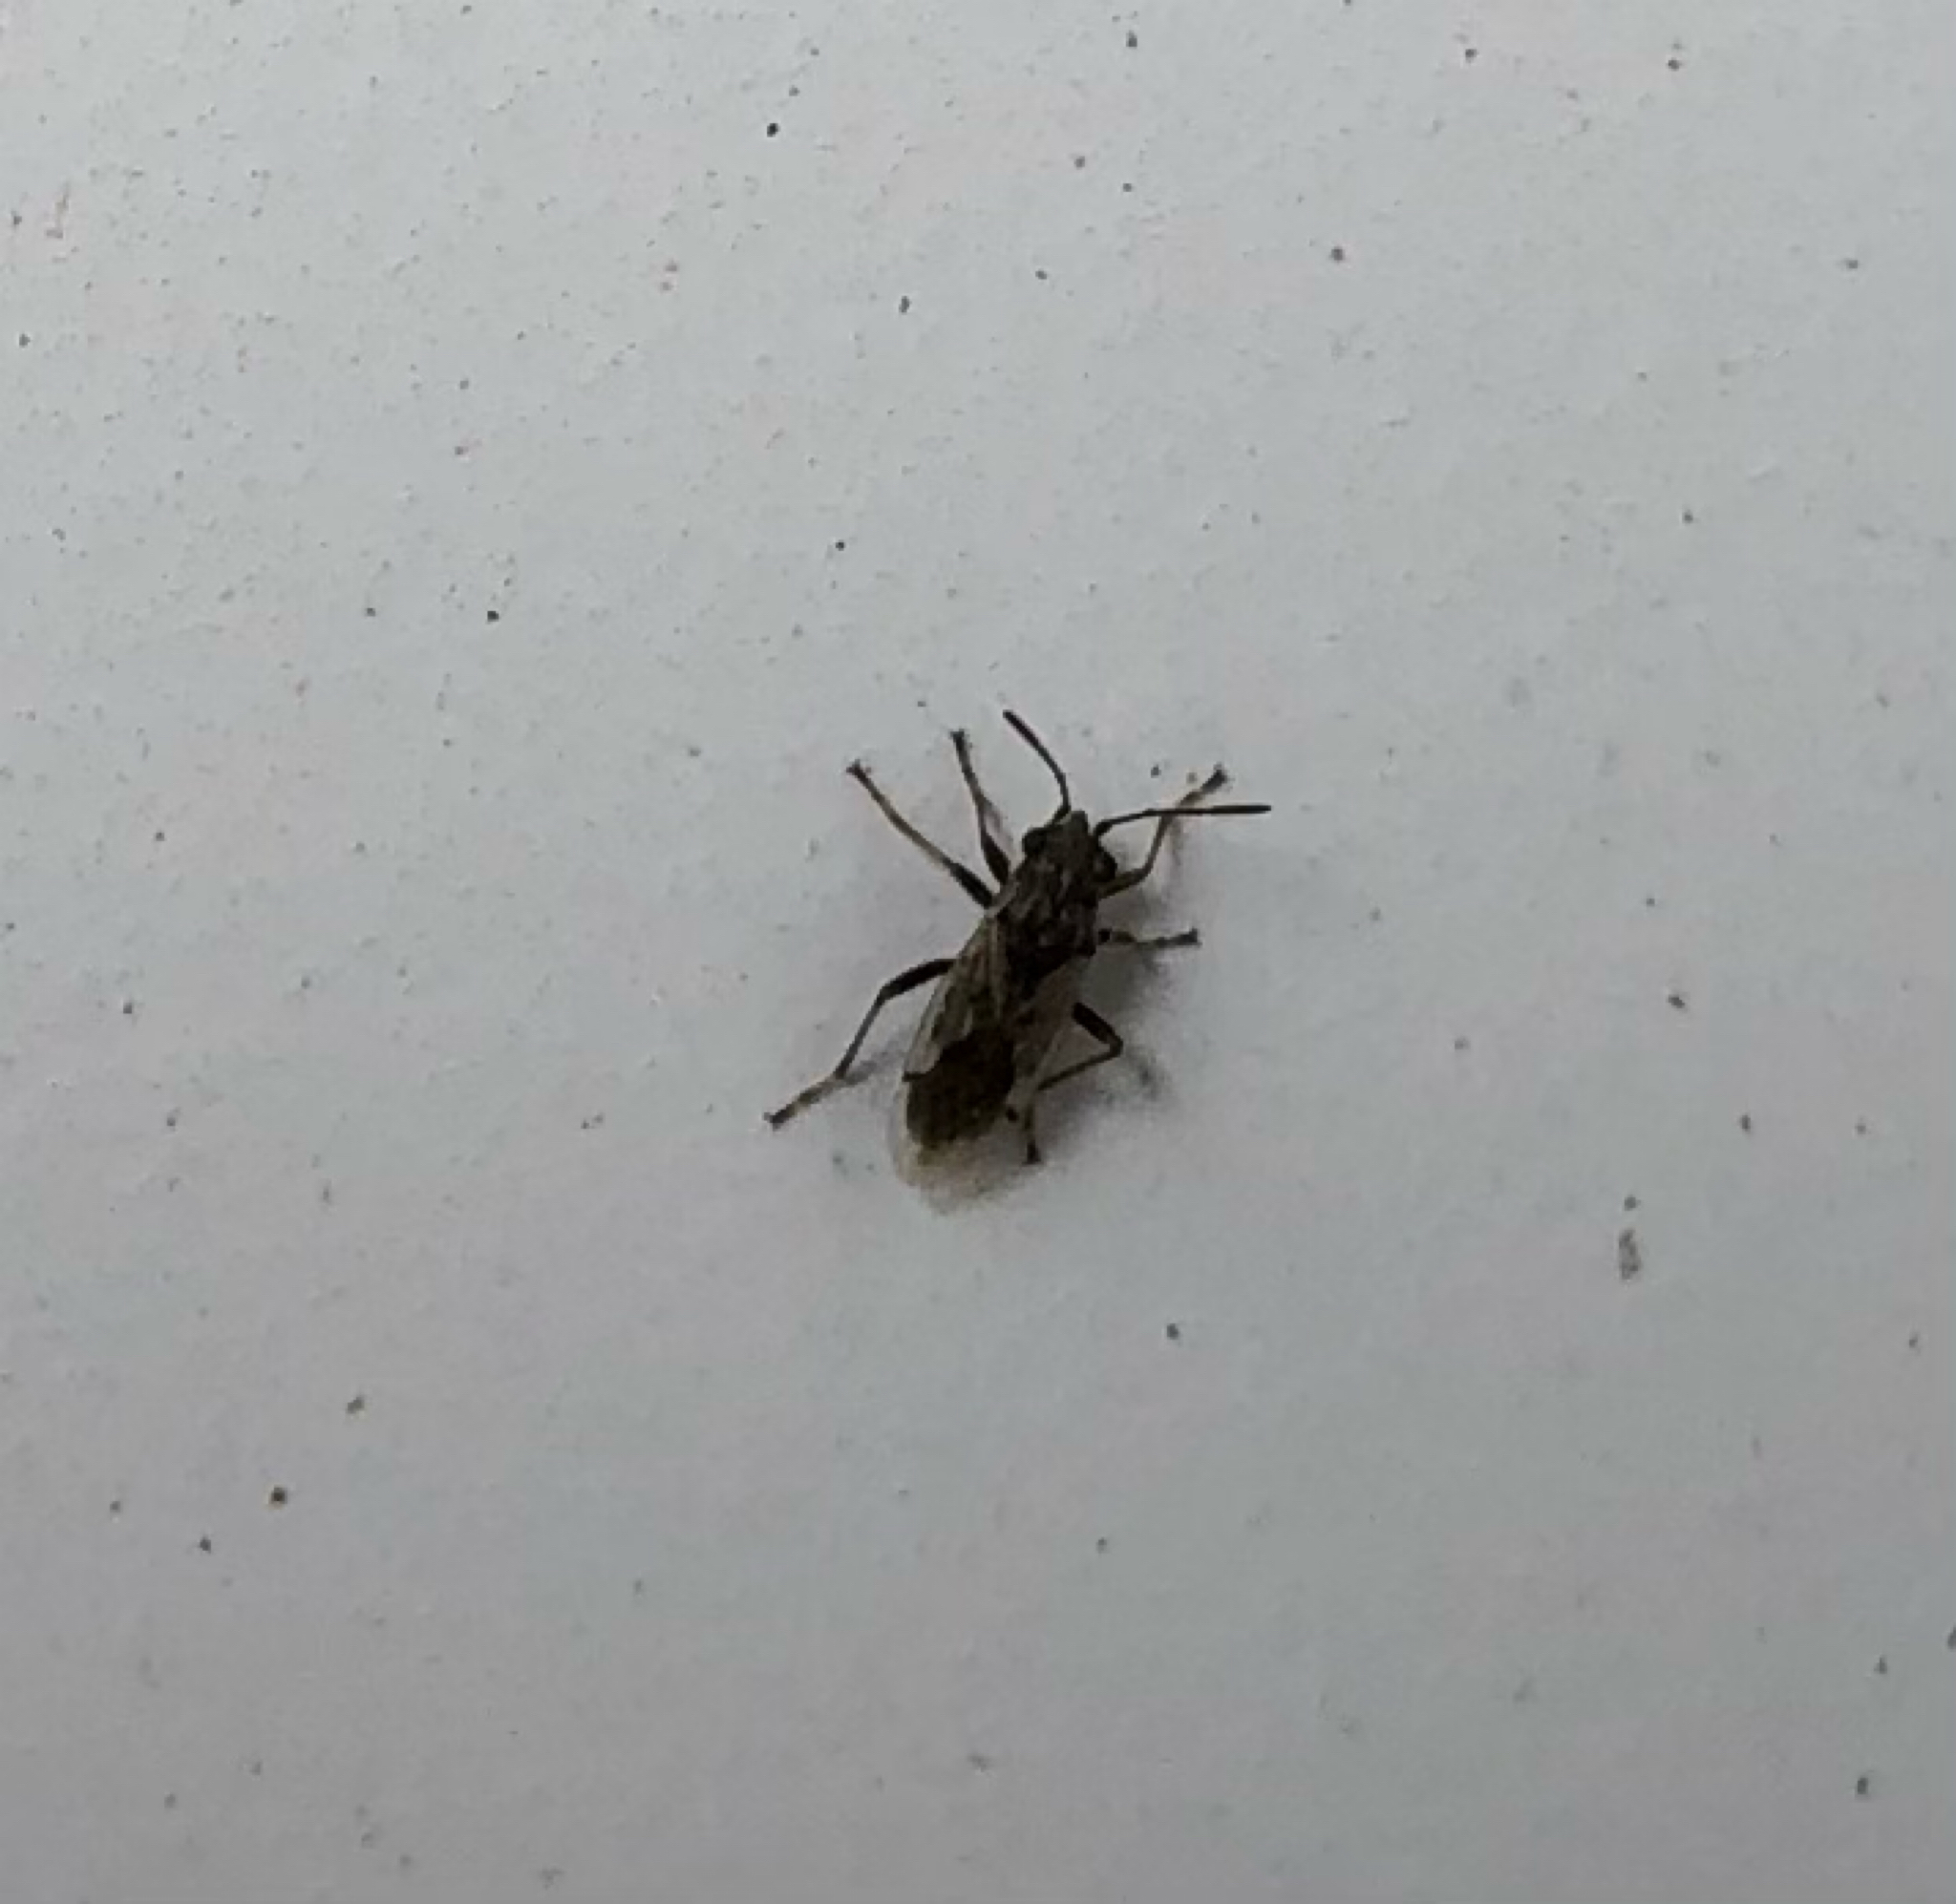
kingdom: Animalia
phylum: Arthropoda
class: Insecta
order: Hemiptera
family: Lygaeidae
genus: Nysius
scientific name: Nysius ericae
